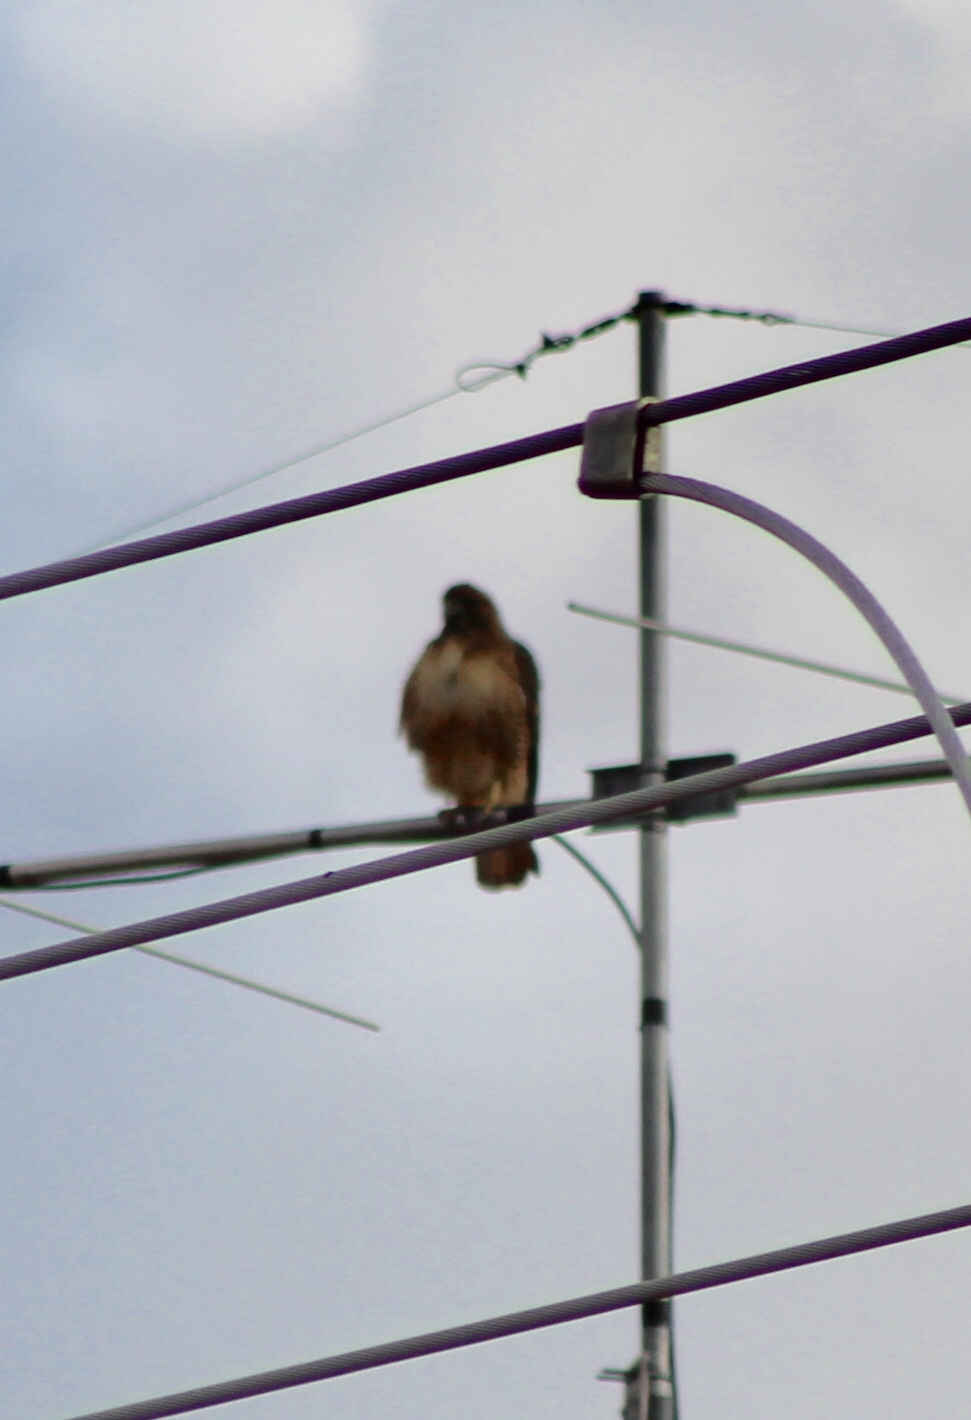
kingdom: Animalia
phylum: Chordata
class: Aves
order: Accipitriformes
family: Accipitridae
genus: Buteo
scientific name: Buteo jamaicensis
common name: Red-tailed hawk
